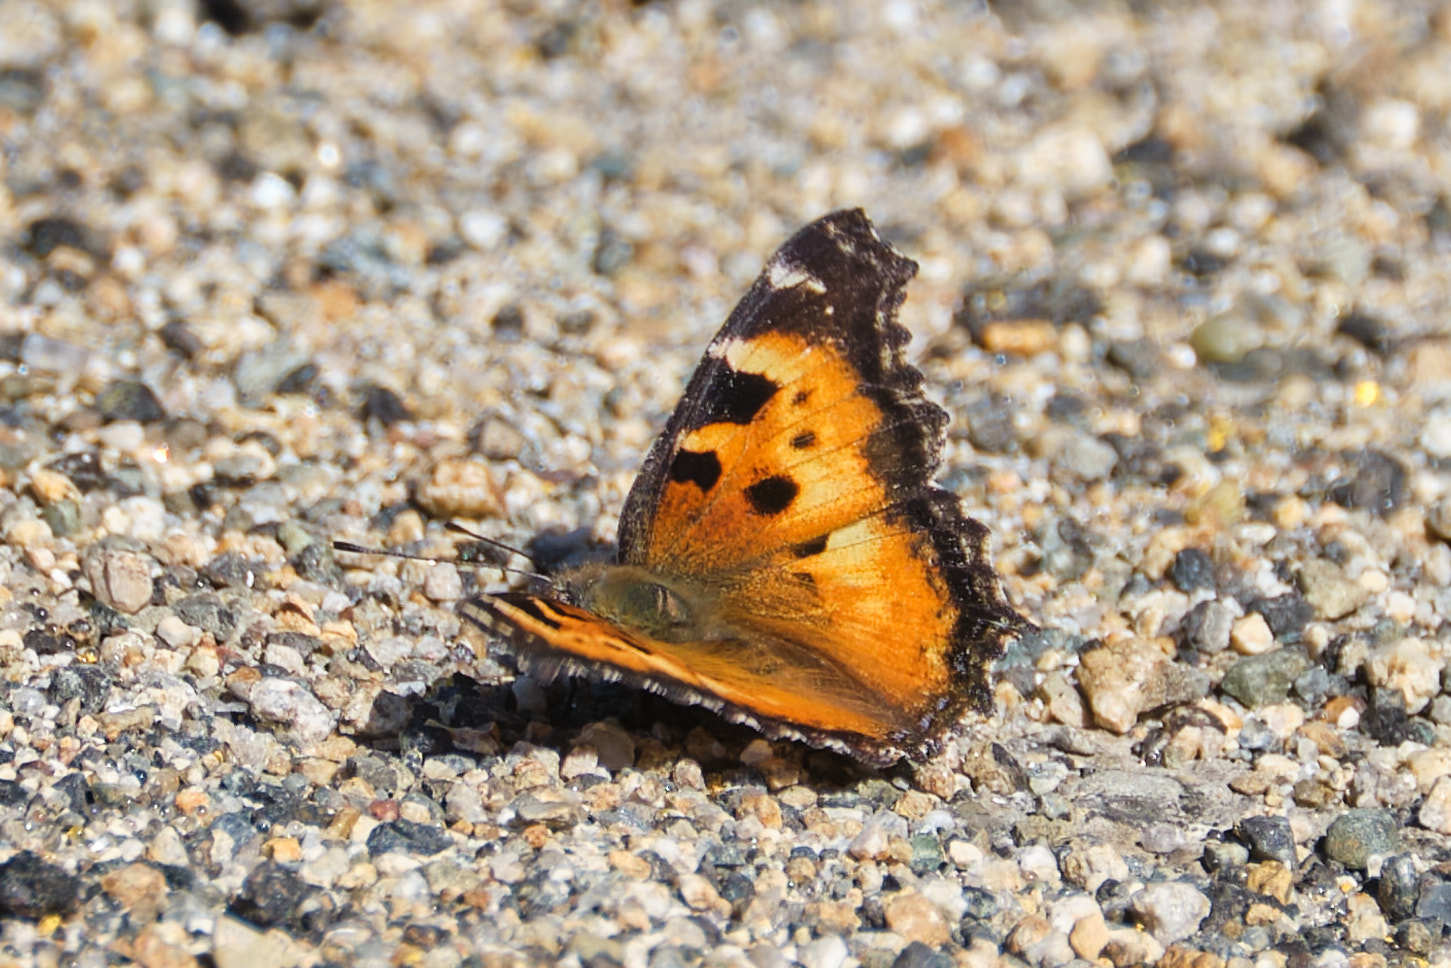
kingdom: Animalia
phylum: Arthropoda
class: Insecta
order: Lepidoptera
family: Nymphalidae
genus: Nymphalis
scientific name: Nymphalis californica
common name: California tortoiseshell
